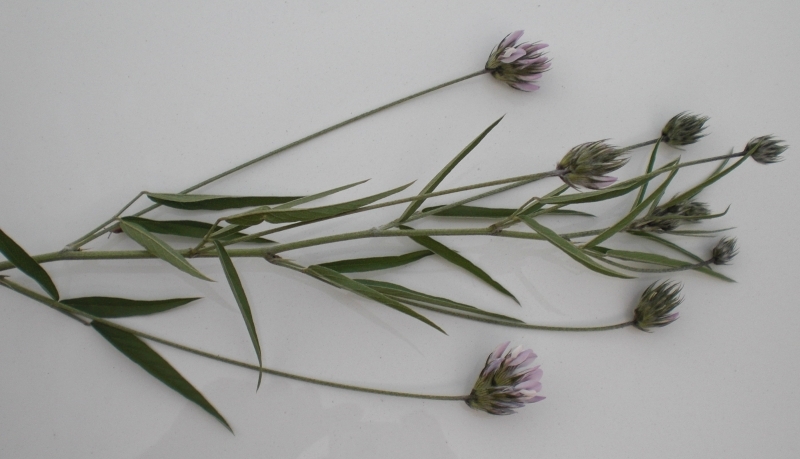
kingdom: Plantae
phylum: Tracheophyta
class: Magnoliopsida
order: Fabales
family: Fabaceae
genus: Bituminaria
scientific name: Bituminaria bituminosa
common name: Arabian pea
